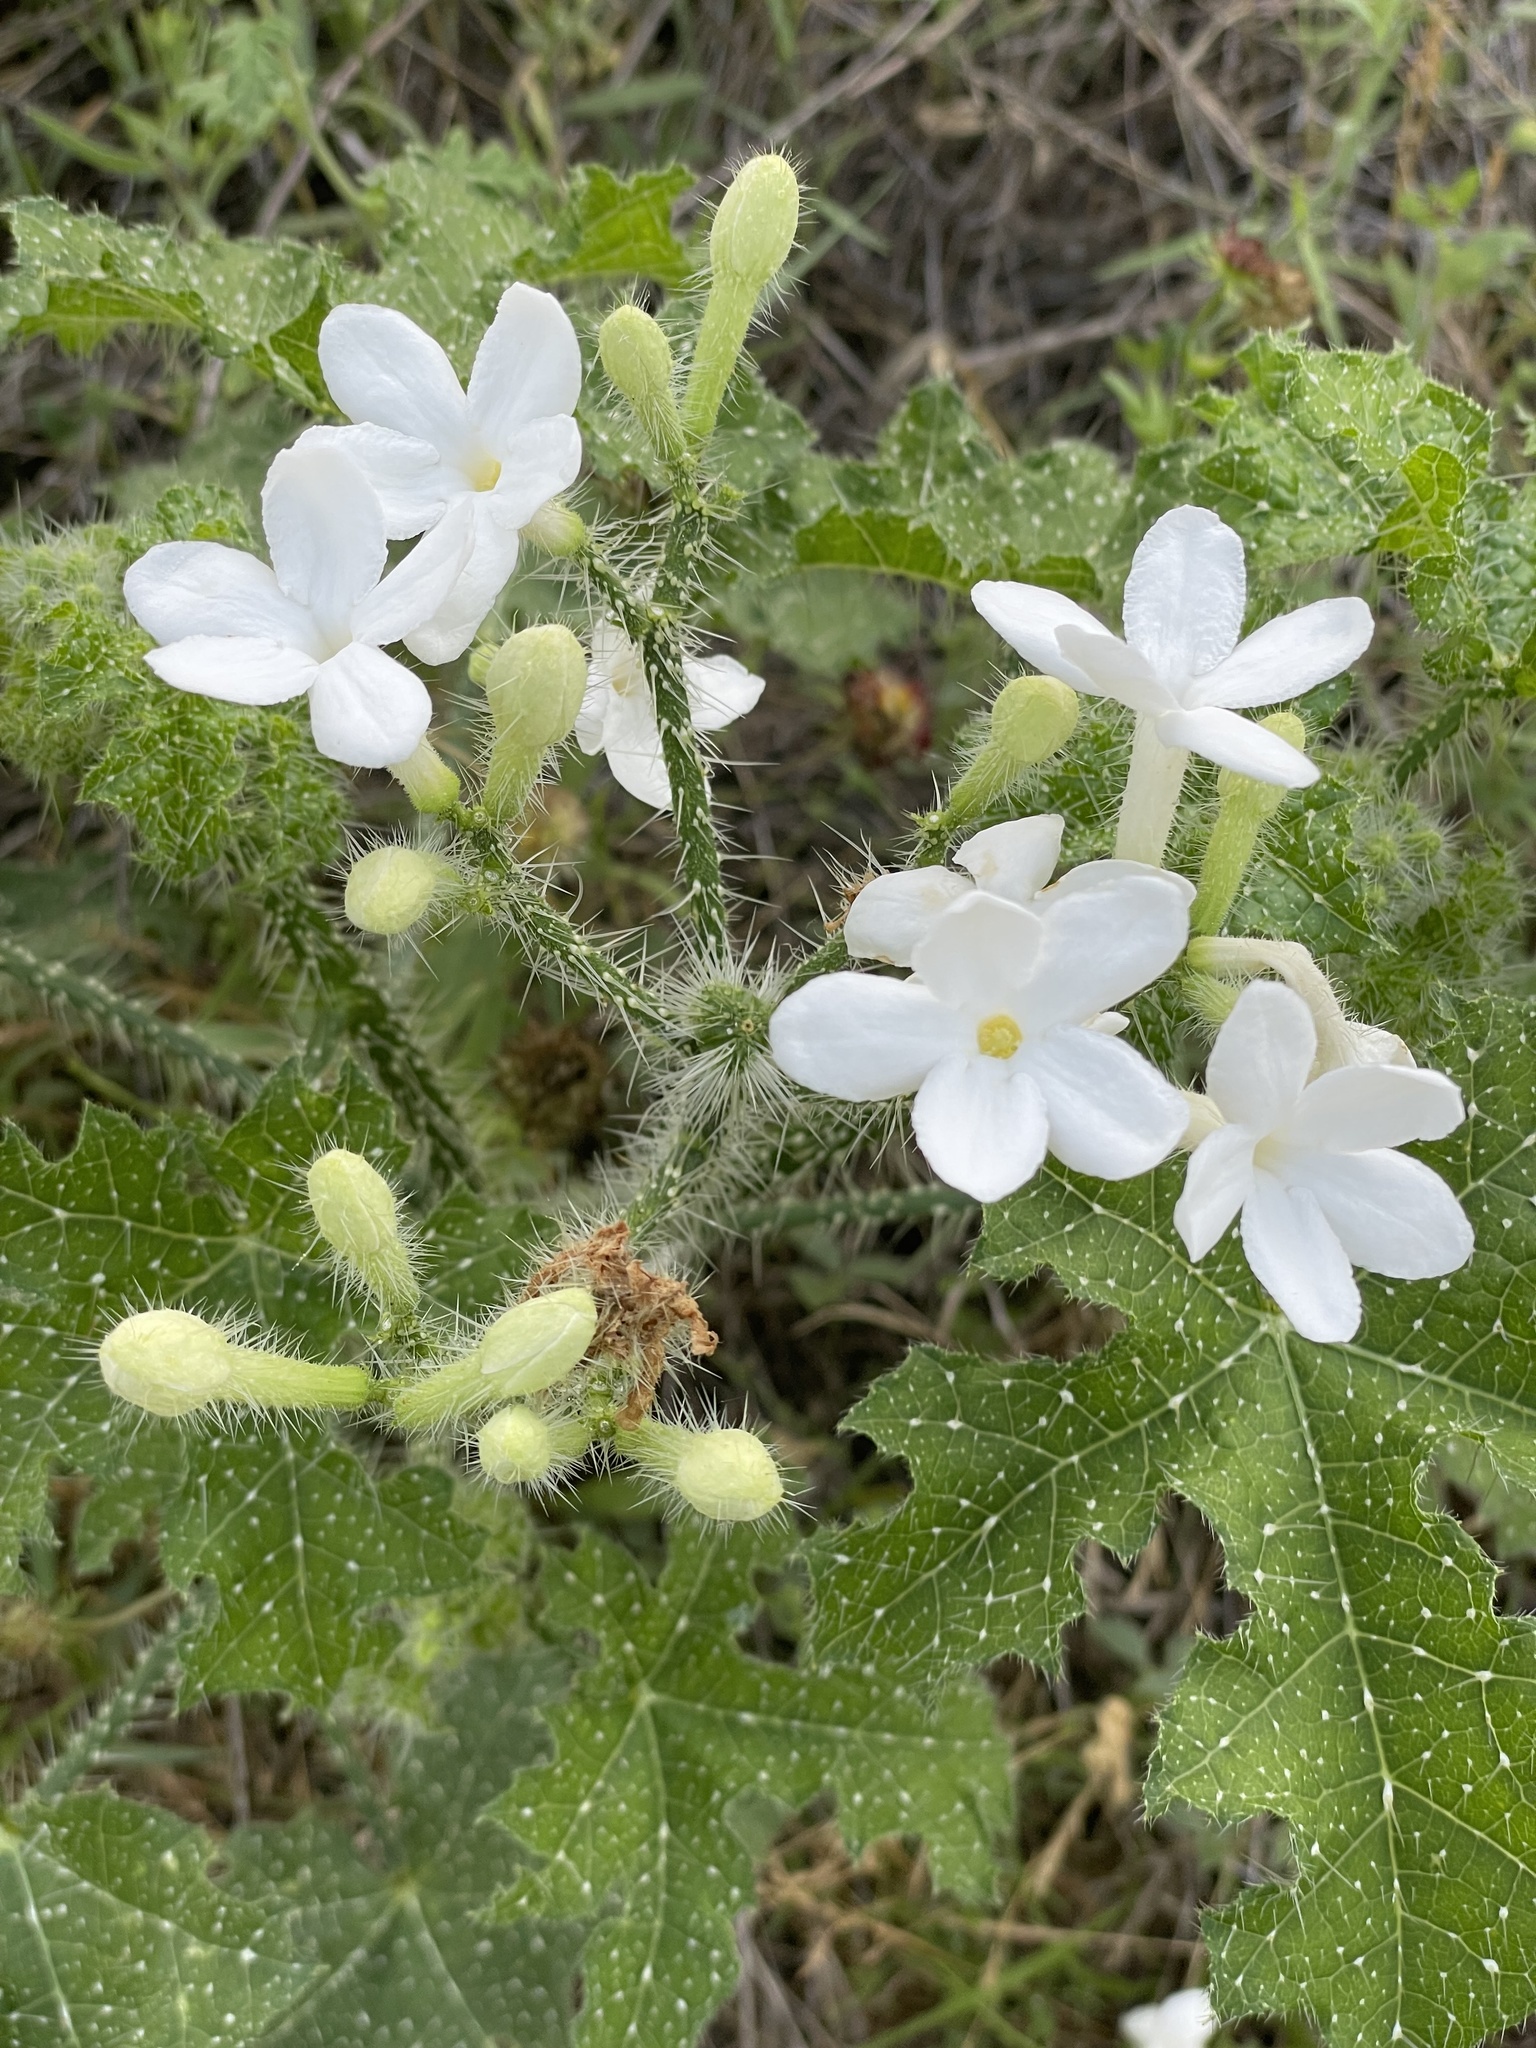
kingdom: Plantae
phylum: Tracheophyta
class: Magnoliopsida
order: Malpighiales
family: Euphorbiaceae
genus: Cnidoscolus
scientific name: Cnidoscolus texanus
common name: Texas bull-nettle
